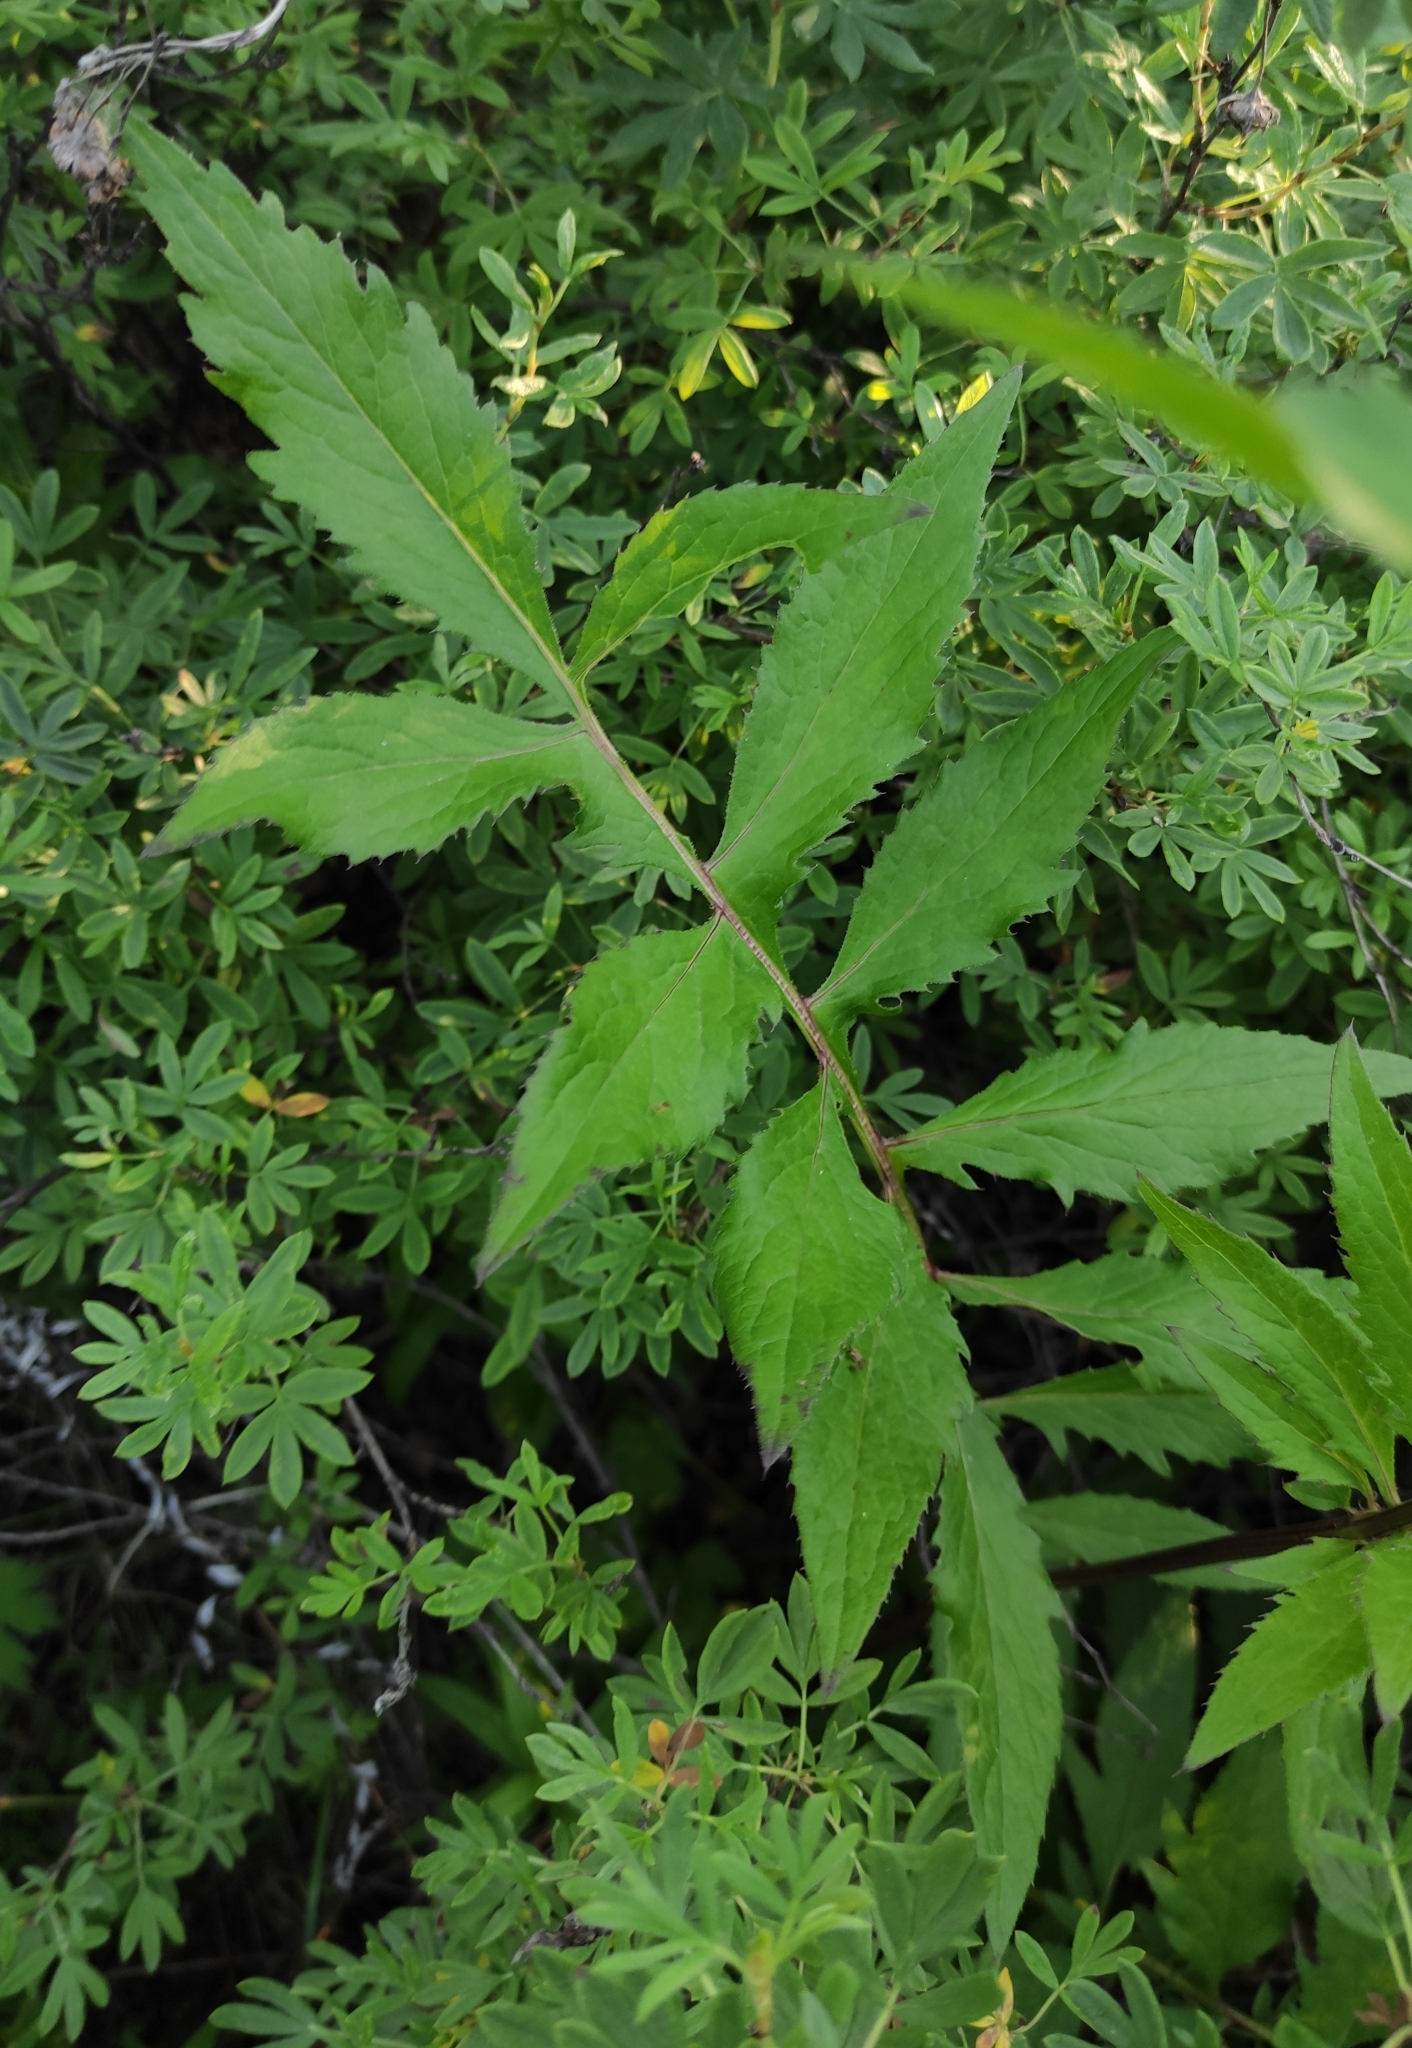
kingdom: Plantae
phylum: Tracheophyta
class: Magnoliopsida
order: Asterales
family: Asteraceae
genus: Serratula
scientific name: Serratula coronata
